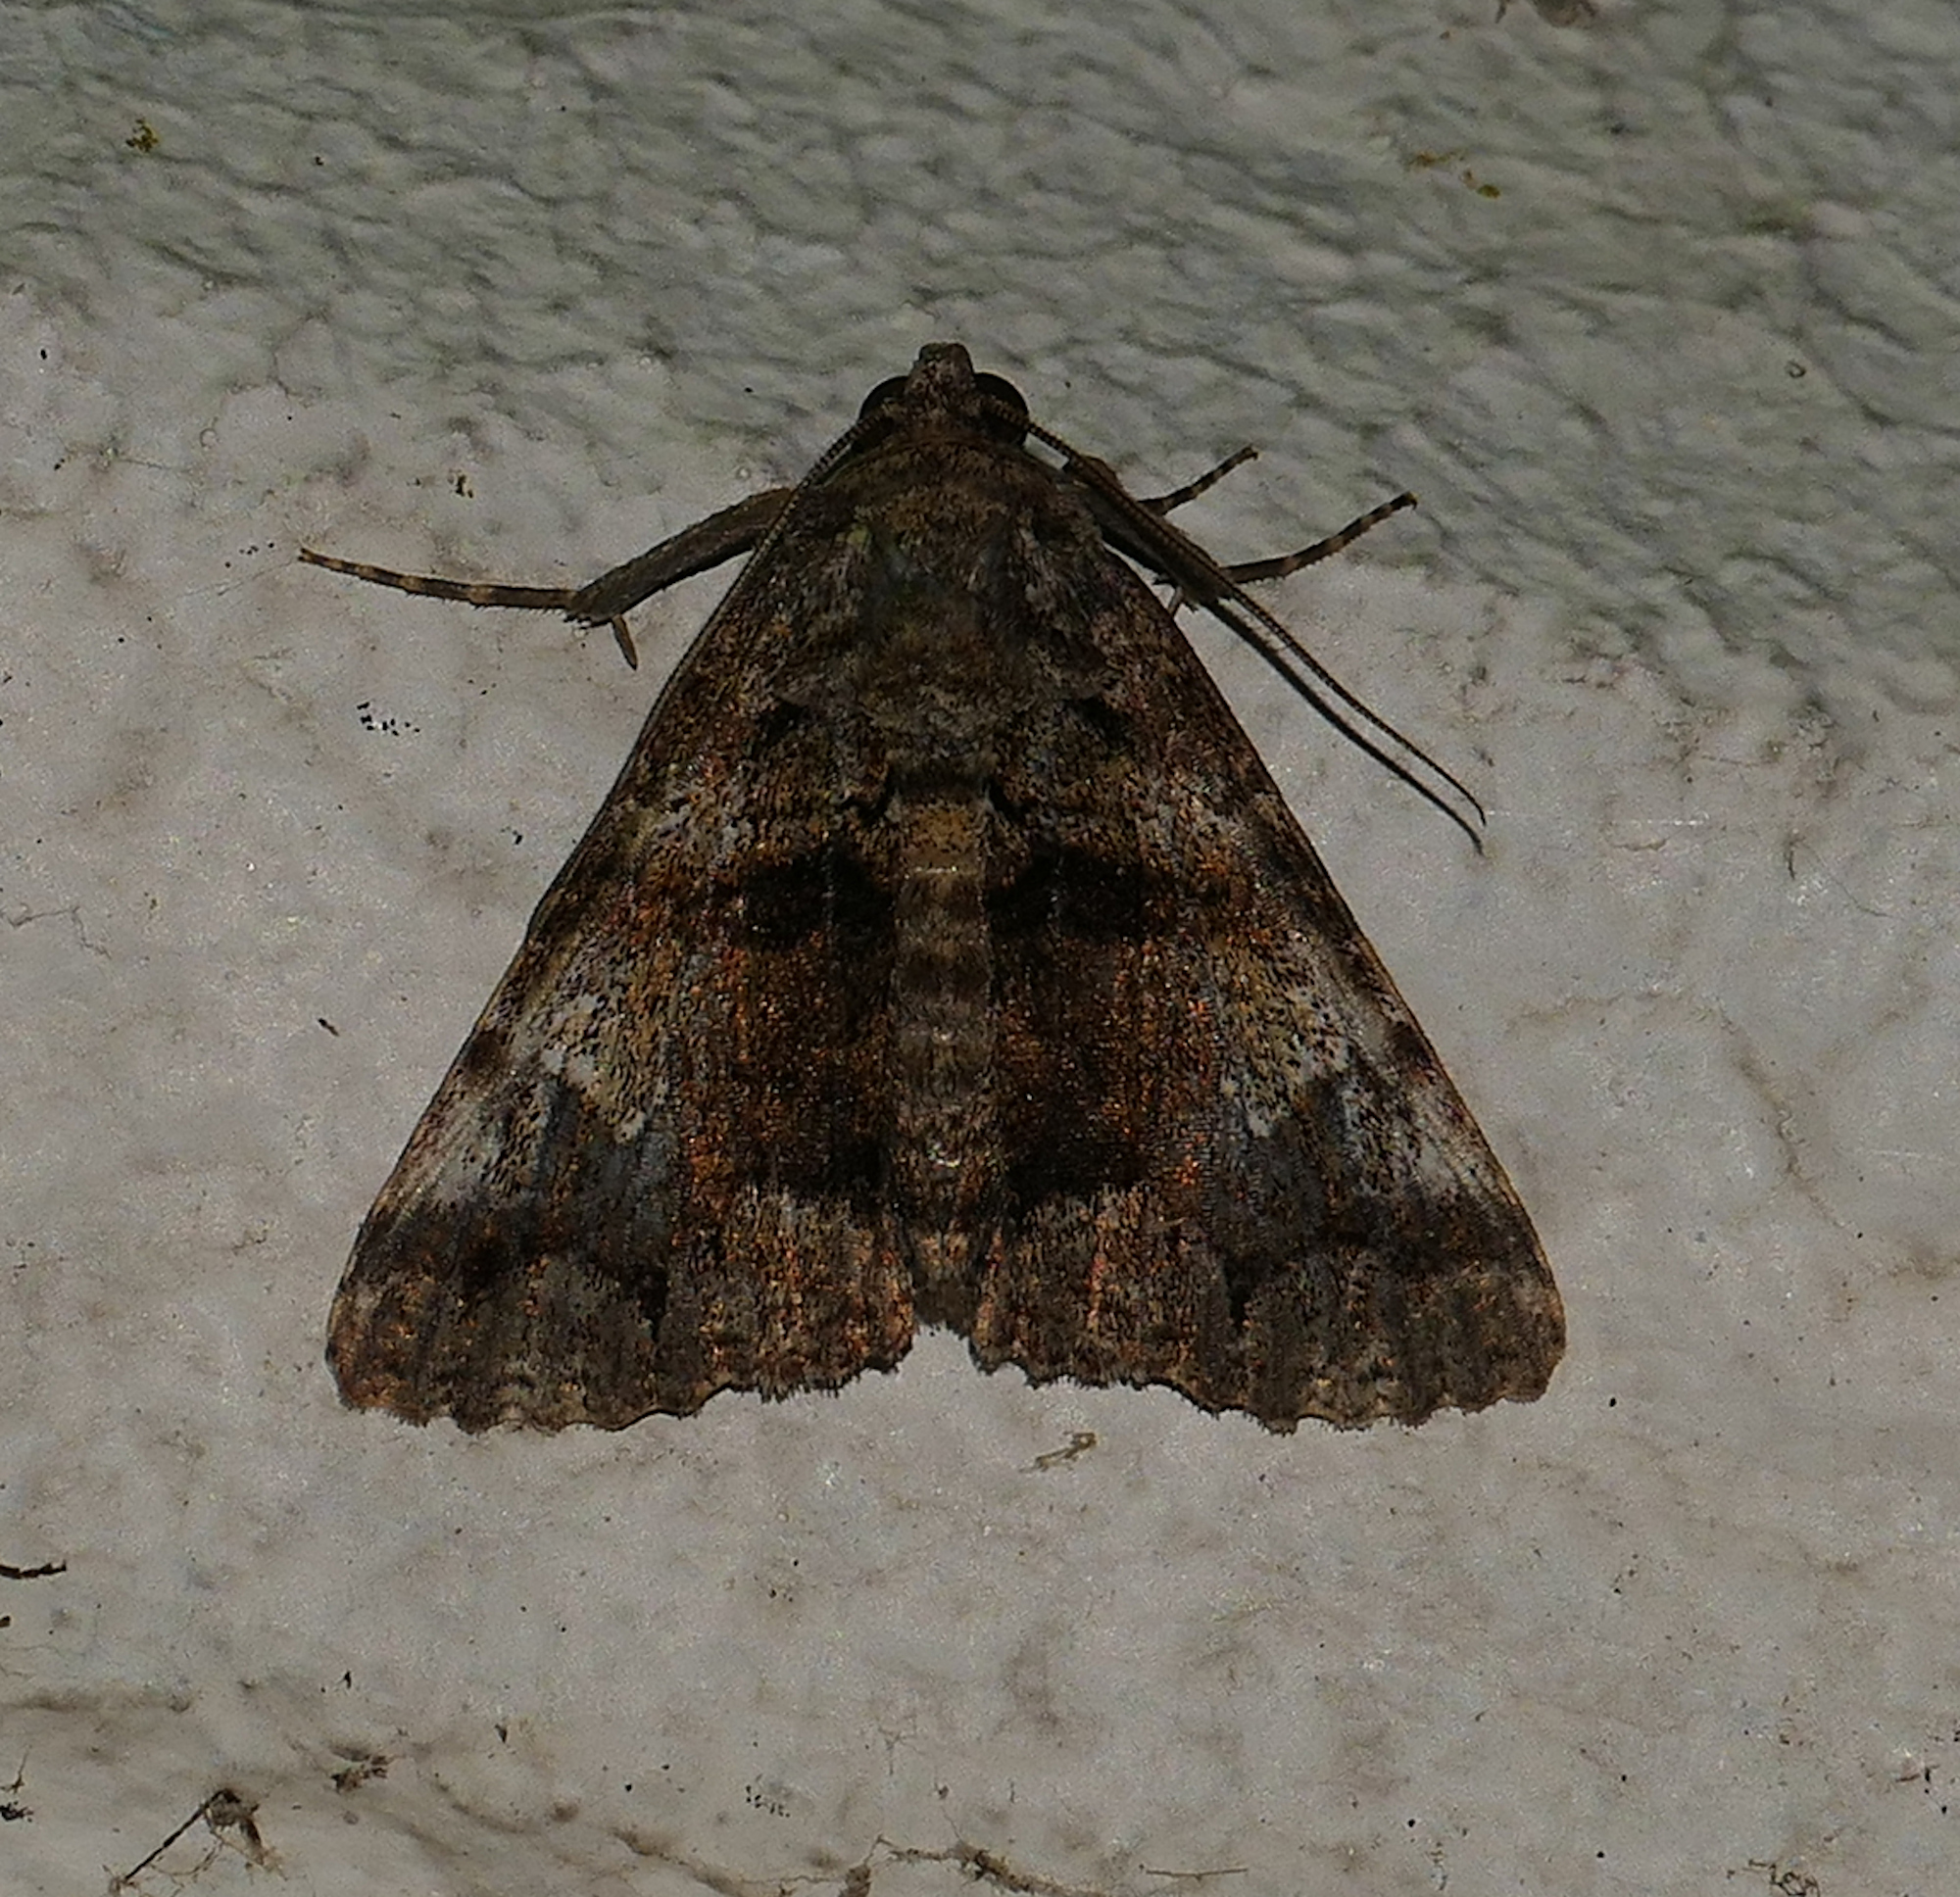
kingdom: Animalia
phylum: Arthropoda
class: Insecta
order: Lepidoptera
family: Erebidae
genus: Metria
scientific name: Metria amella
